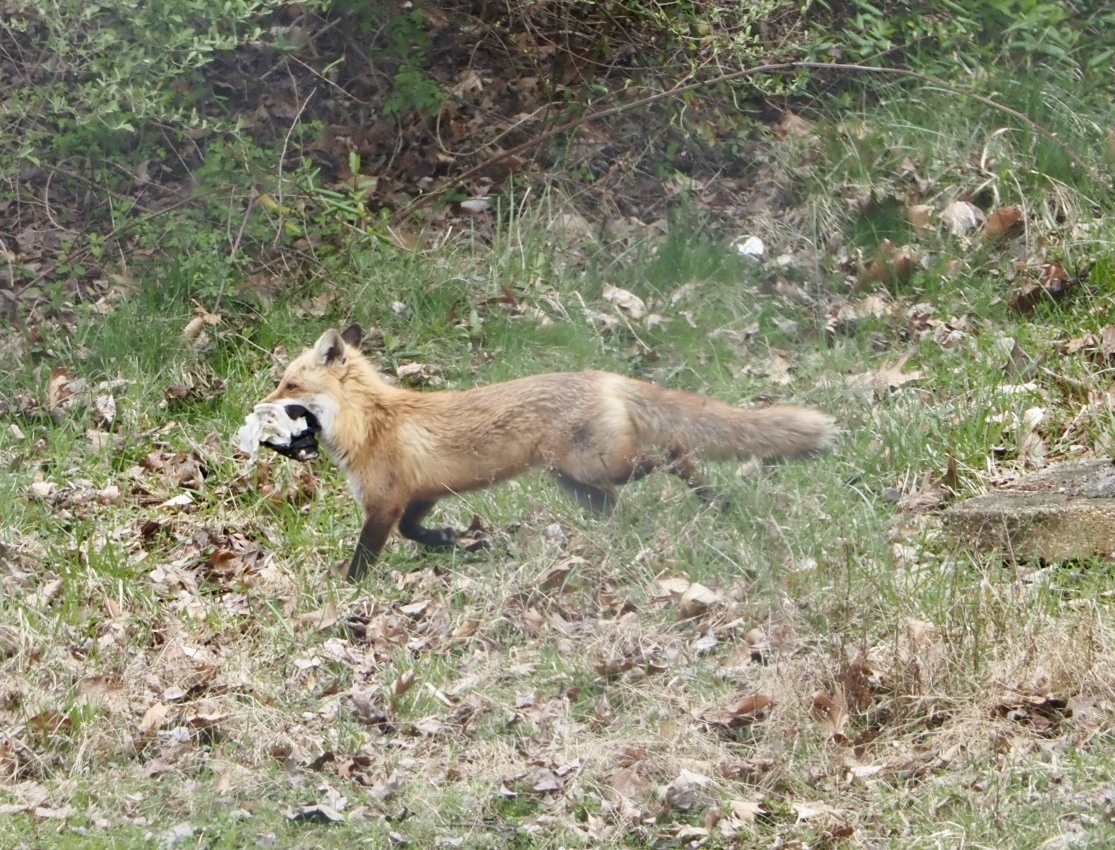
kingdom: Animalia
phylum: Chordata
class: Mammalia
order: Carnivora
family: Canidae
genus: Vulpes
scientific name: Vulpes vulpes
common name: Red fox
